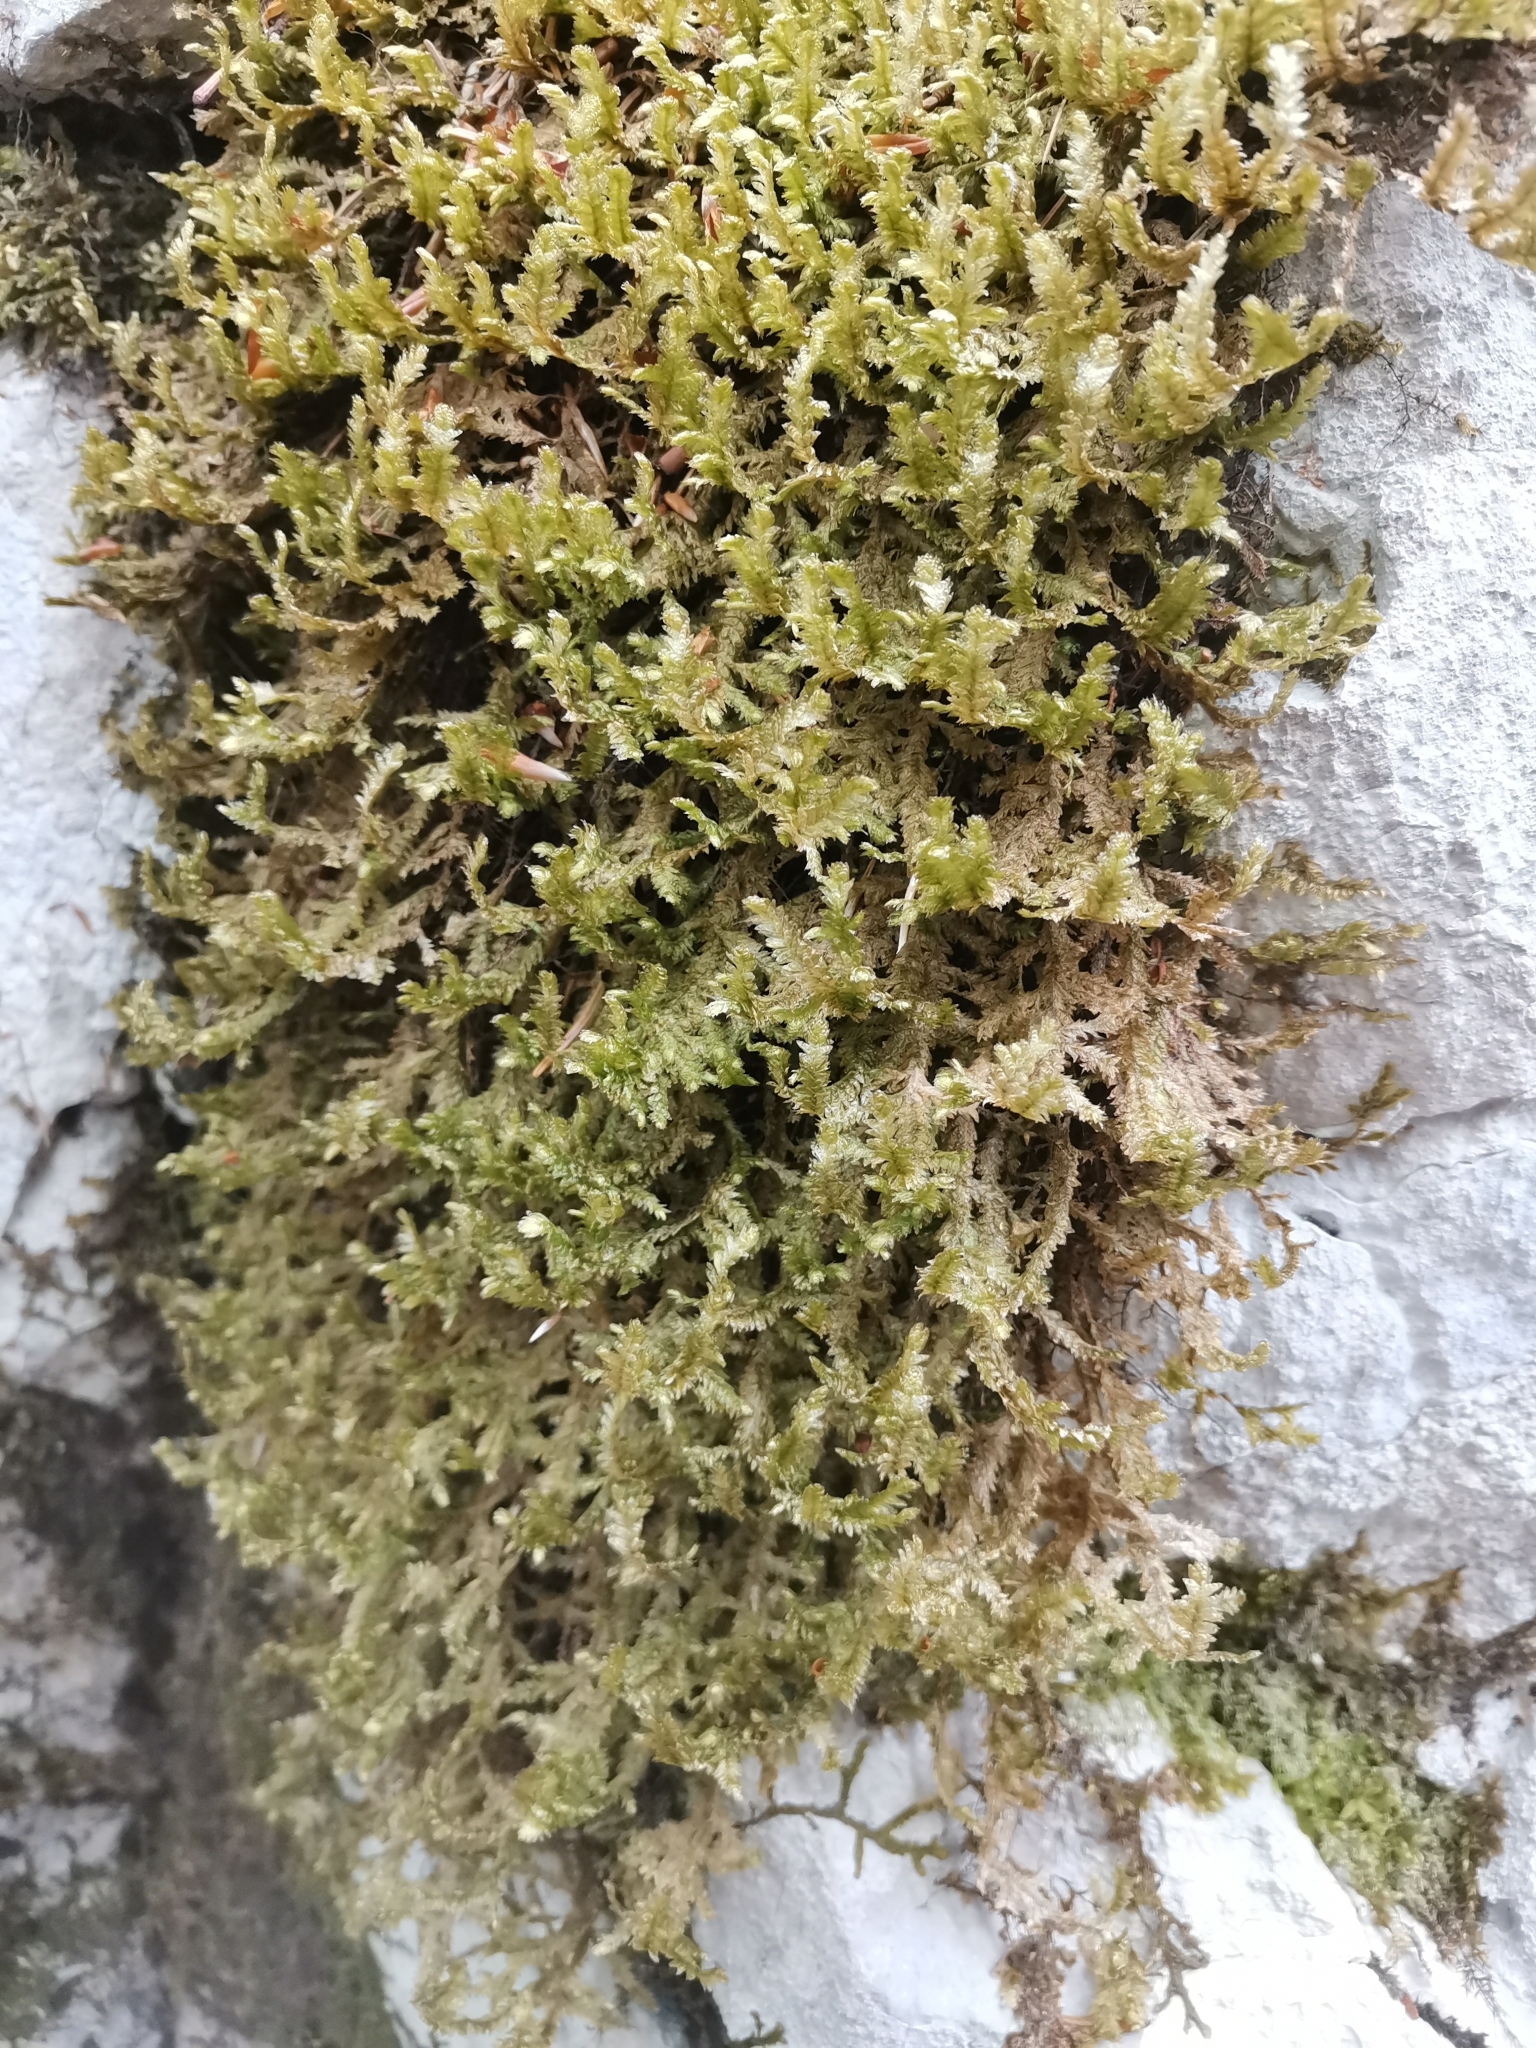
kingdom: Plantae
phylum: Bryophyta
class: Bryopsida
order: Hypnales
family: Neckeraceae
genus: Exsertotheca
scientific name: Exsertotheca crispa
